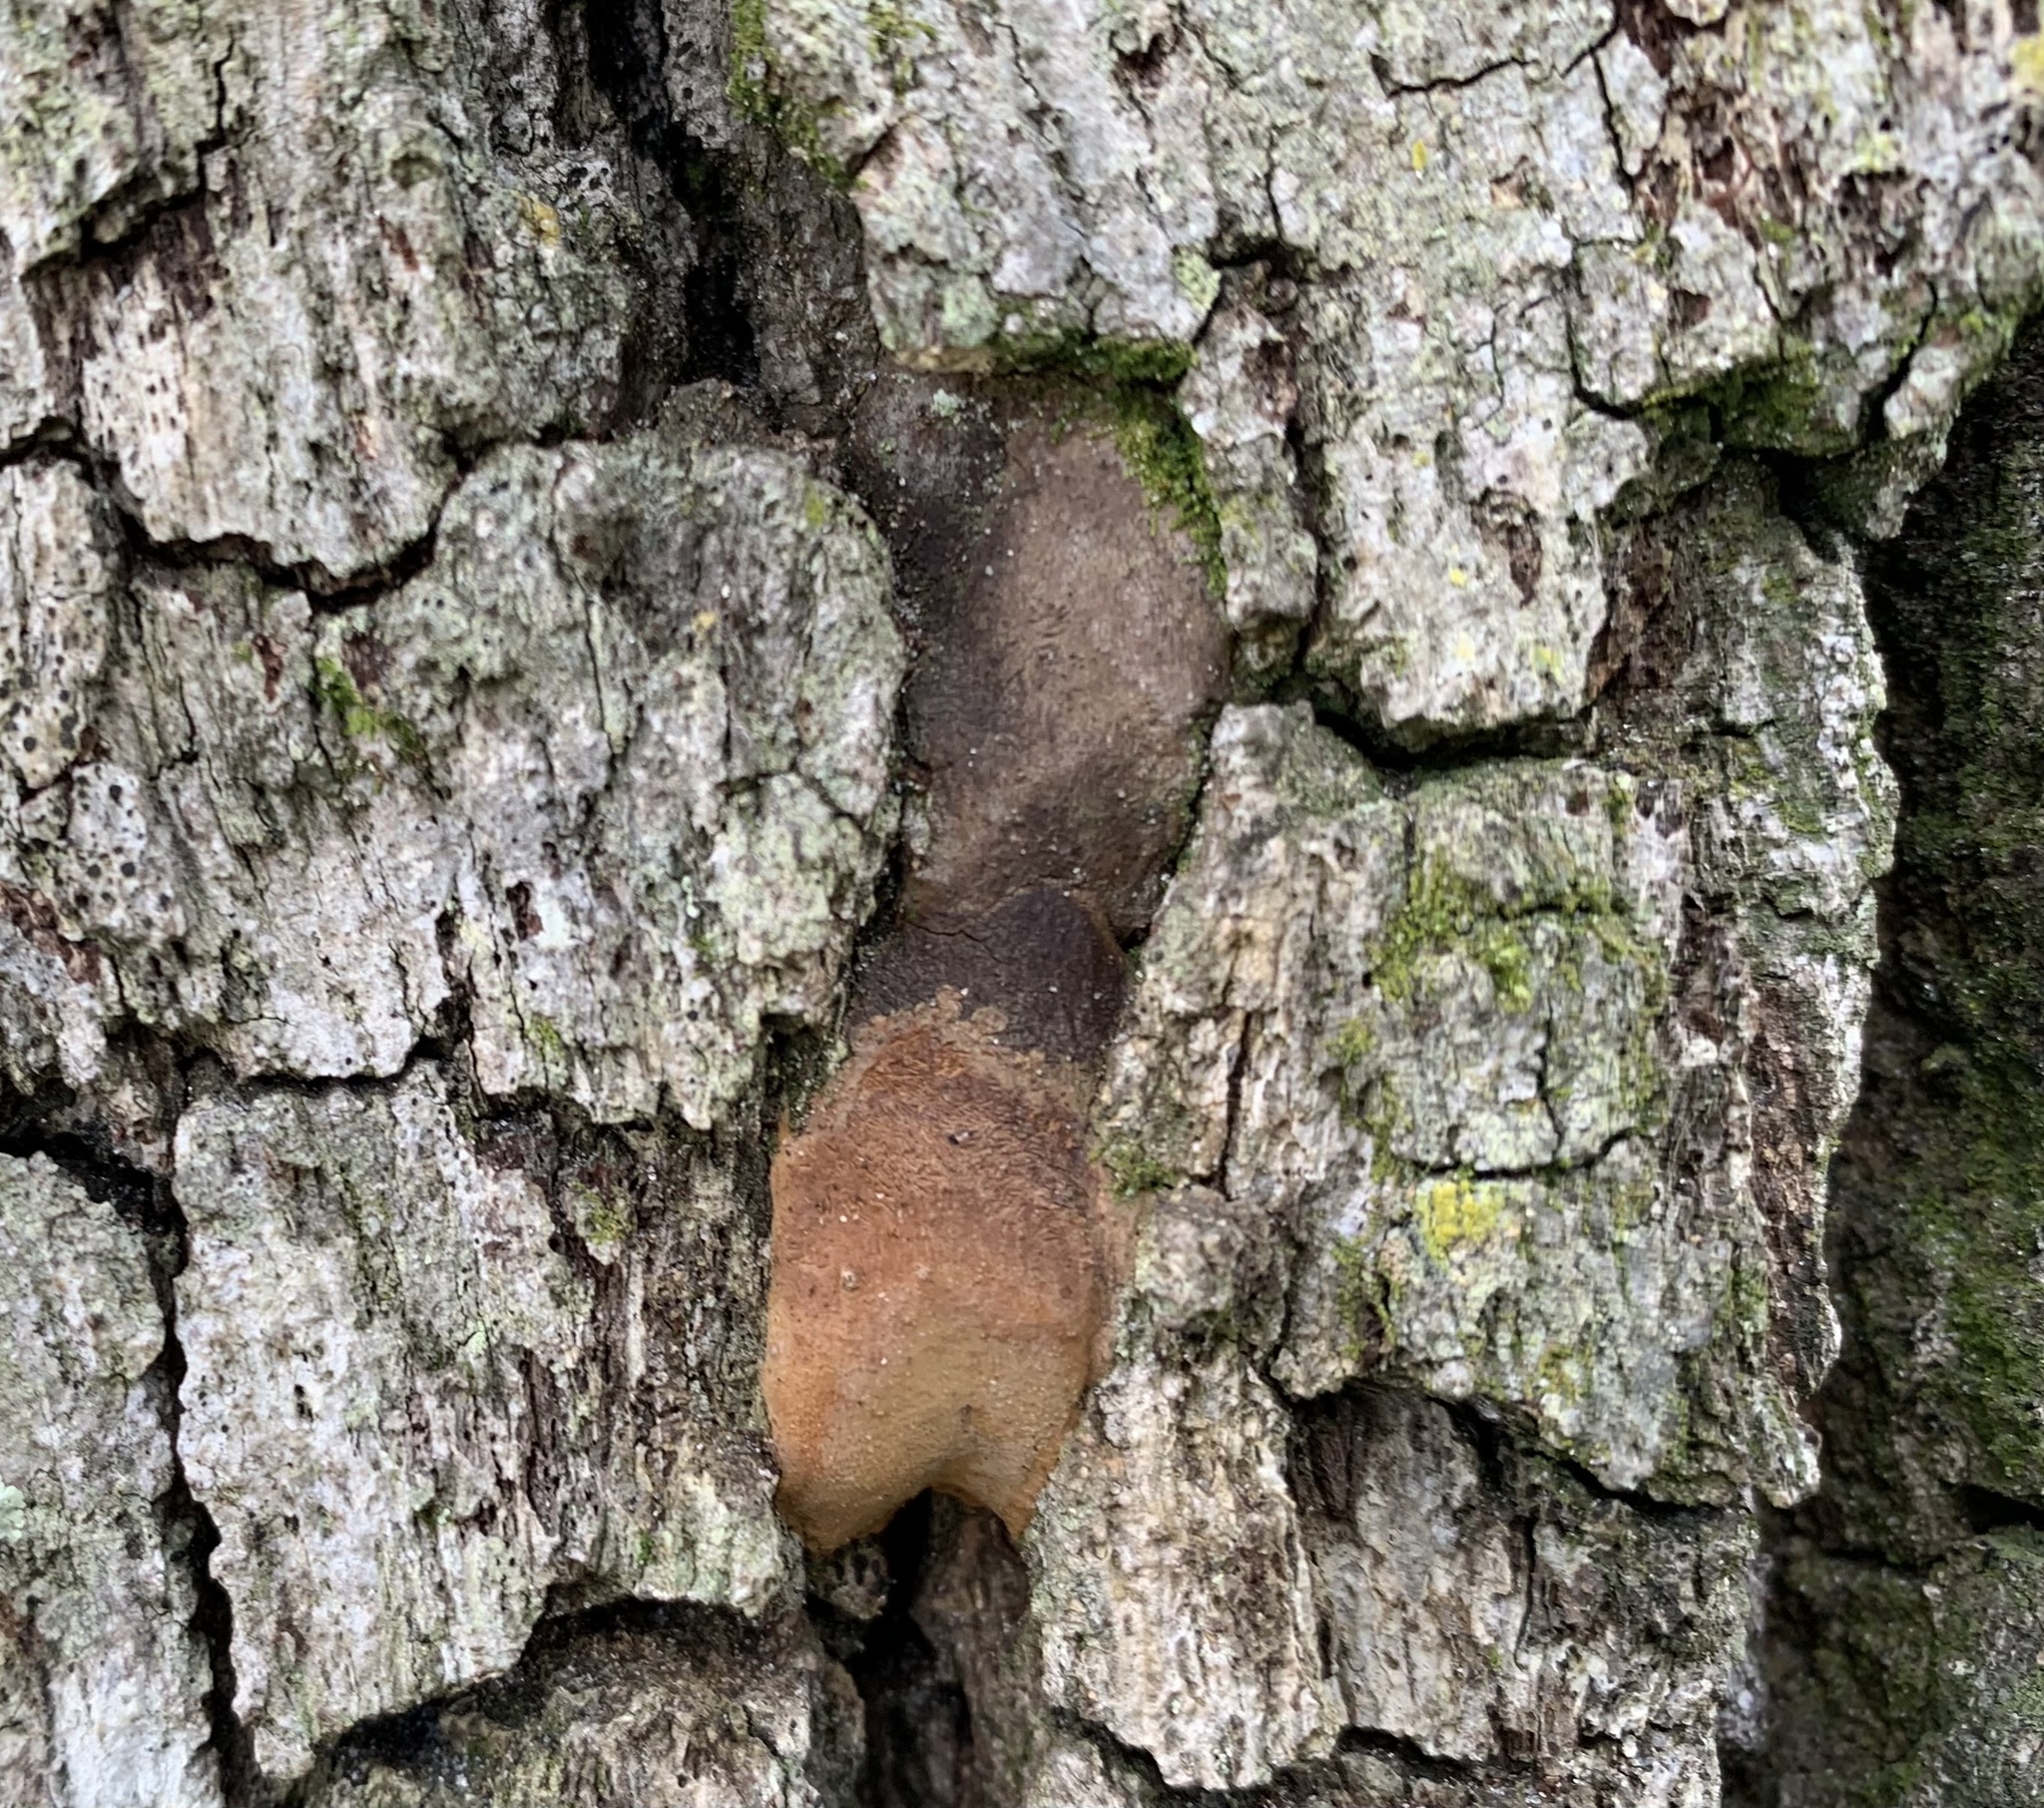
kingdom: Fungi
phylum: Basidiomycota
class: Agaricomycetes
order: Hymenochaetales
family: Hymenochaetaceae
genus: Fomitiporia
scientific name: Fomitiporia punctata
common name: Elbowpatch crust
